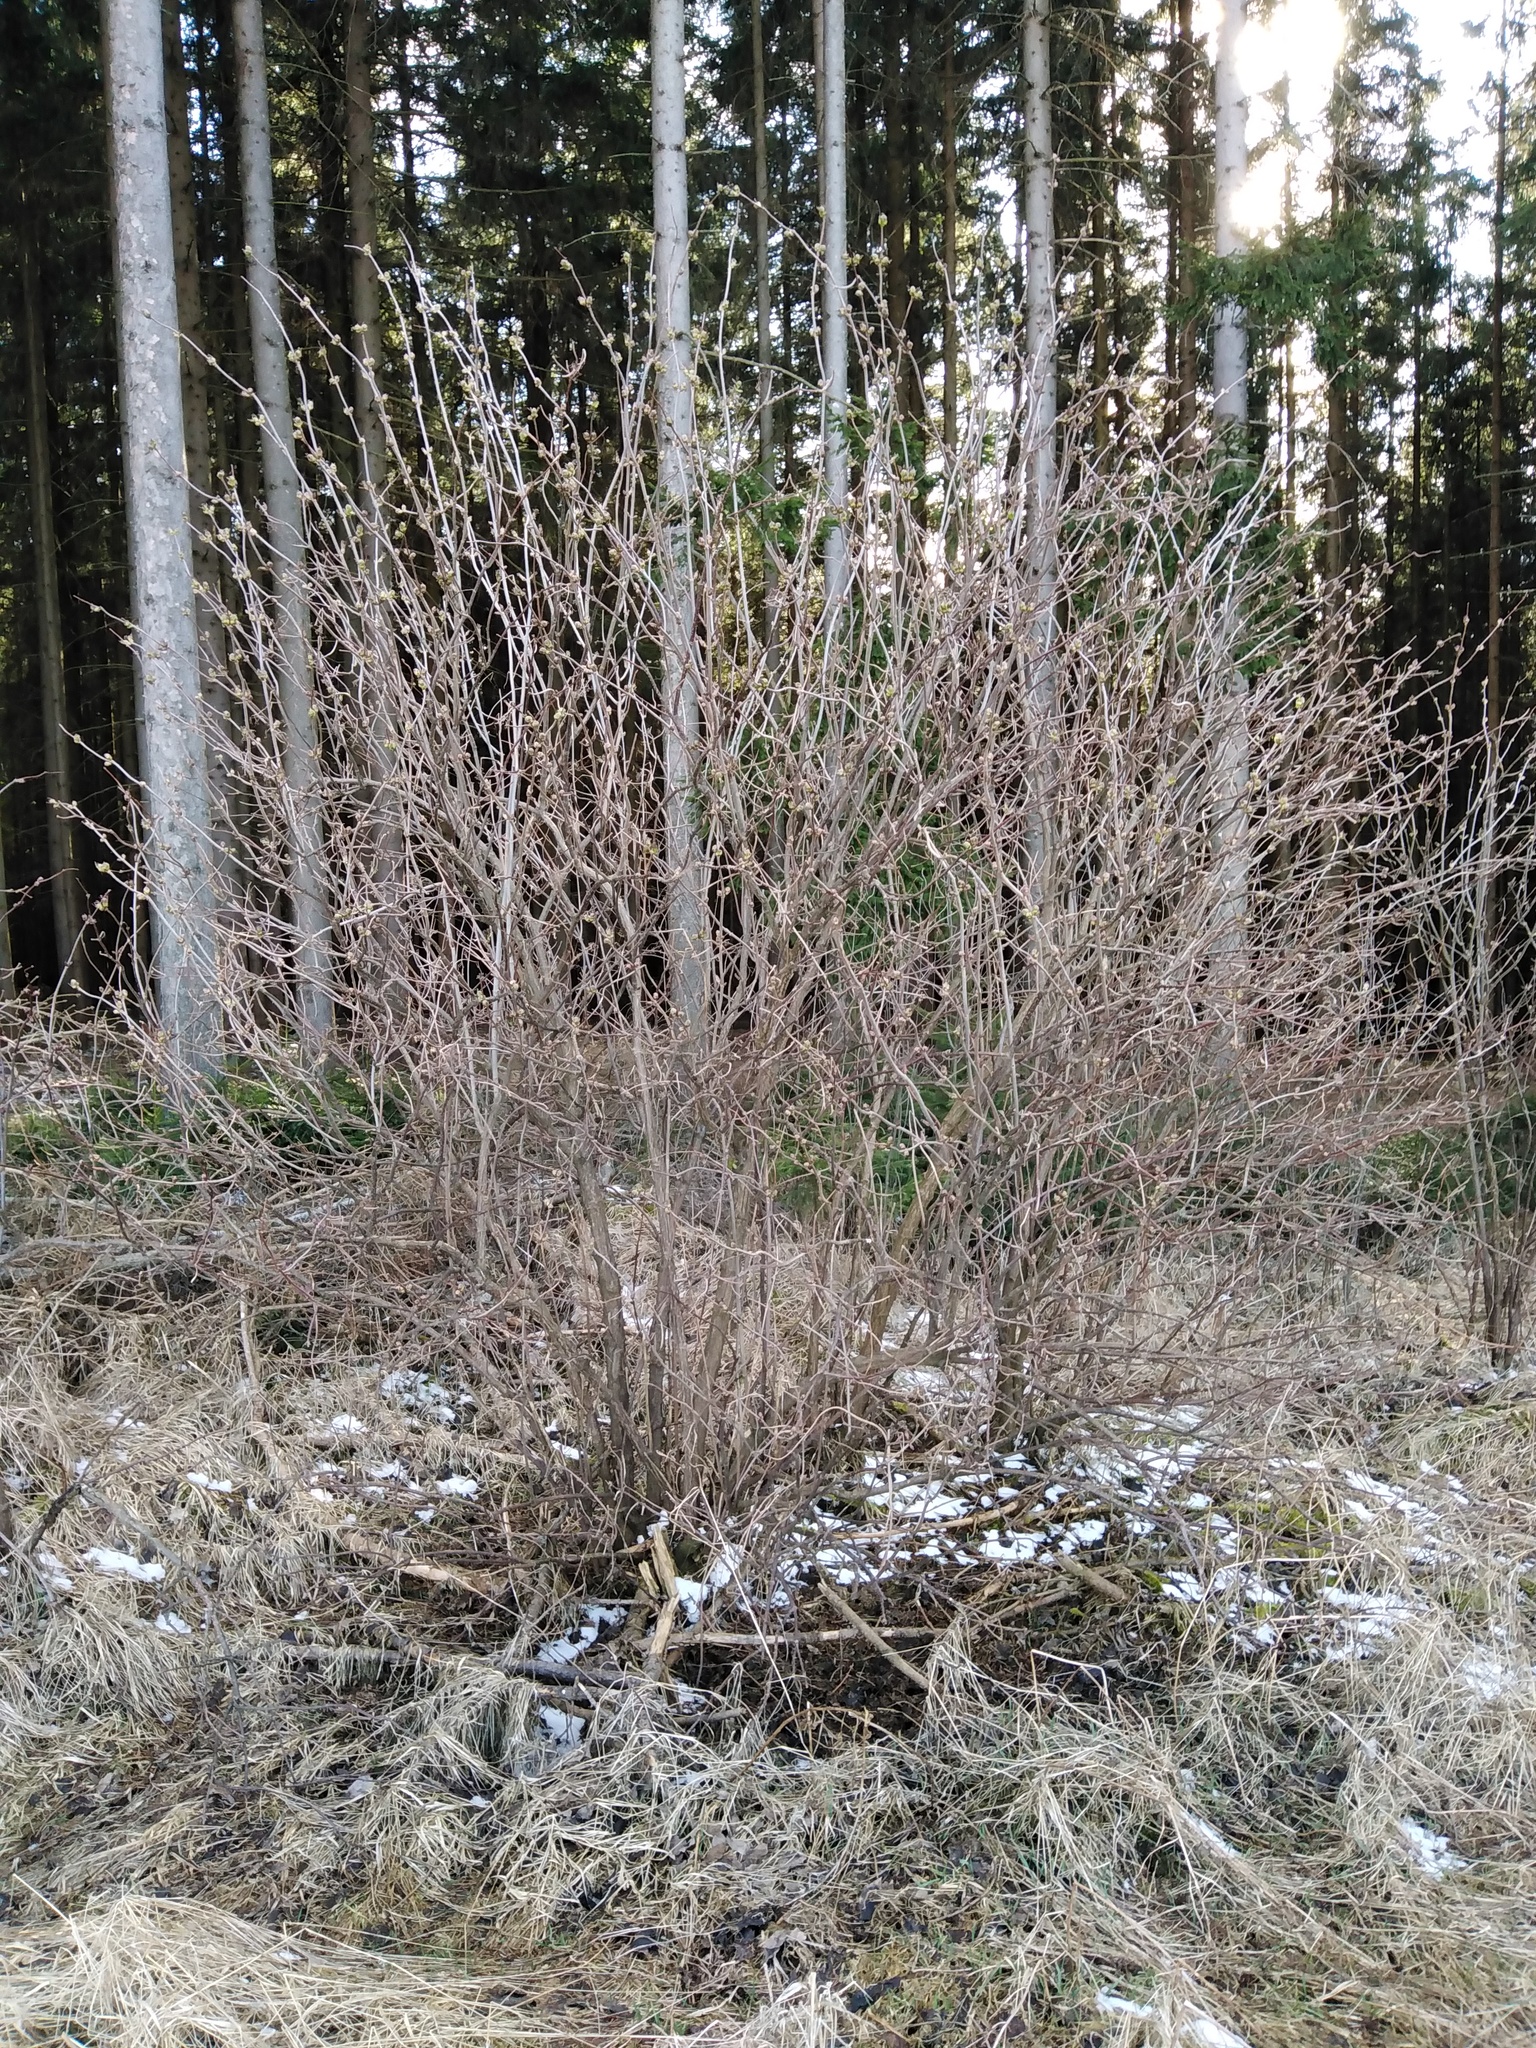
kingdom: Plantae
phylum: Tracheophyta
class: Magnoliopsida
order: Dipsacales
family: Viburnaceae
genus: Sambucus
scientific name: Sambucus racemosa
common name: Red-berried elder
